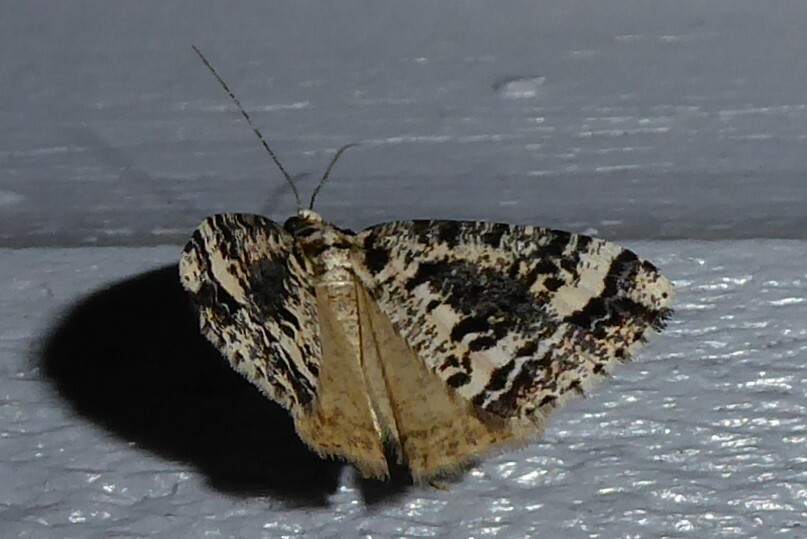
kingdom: Animalia
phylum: Arthropoda
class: Insecta
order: Lepidoptera
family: Geometridae
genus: Pseudocoremia
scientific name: Pseudocoremia leucelaea
